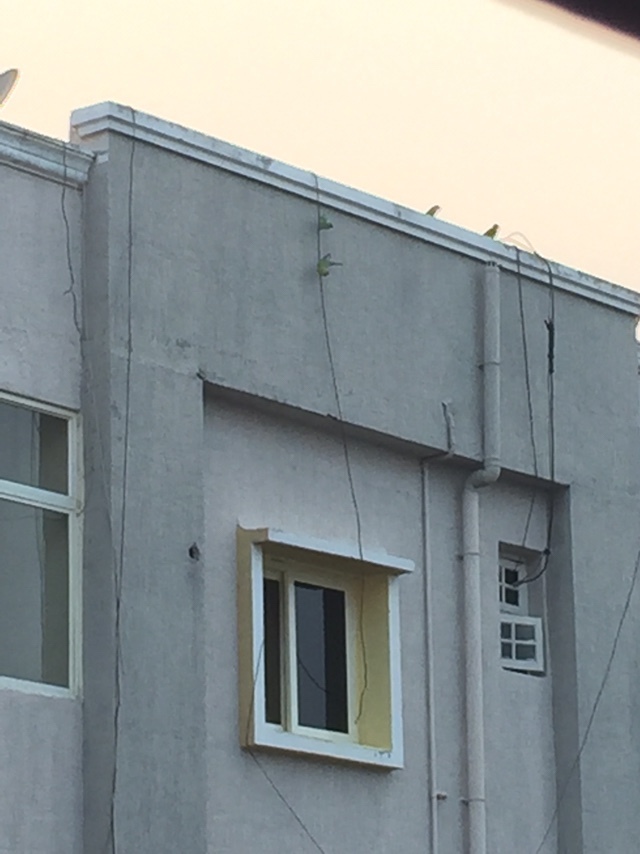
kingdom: Animalia
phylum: Chordata
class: Aves
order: Psittaciformes
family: Psittacidae
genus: Psittacula
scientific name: Psittacula krameri
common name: Rose-ringed parakeet
